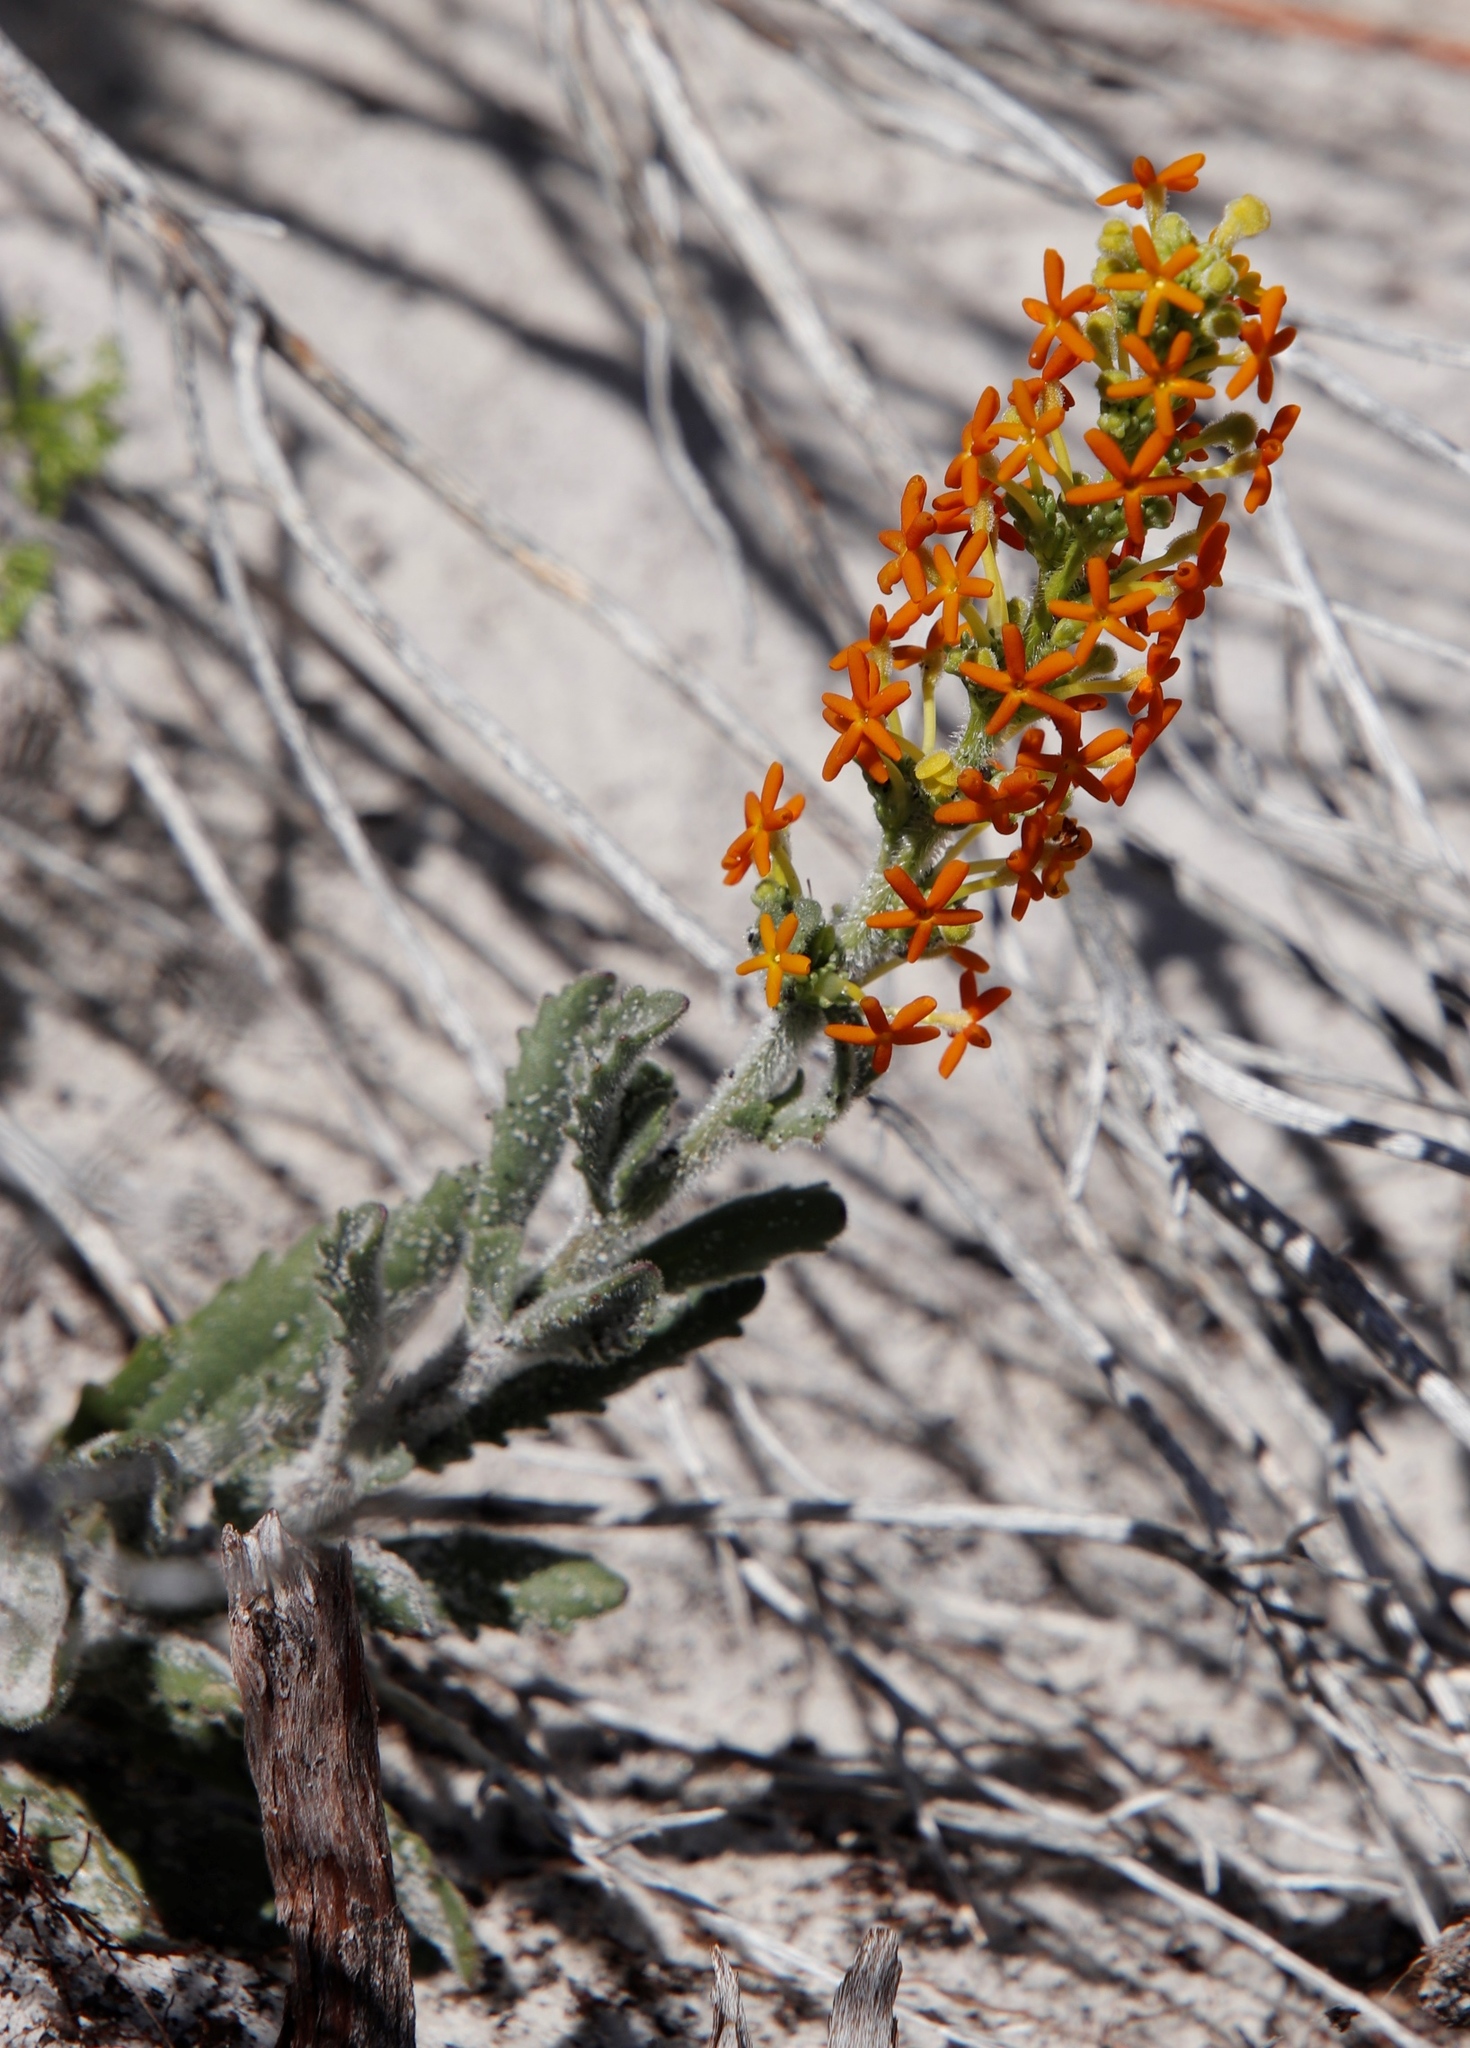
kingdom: Plantae
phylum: Tracheophyta
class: Magnoliopsida
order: Lamiales
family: Scrophulariaceae
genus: Manulea
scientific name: Manulea tomentosa
